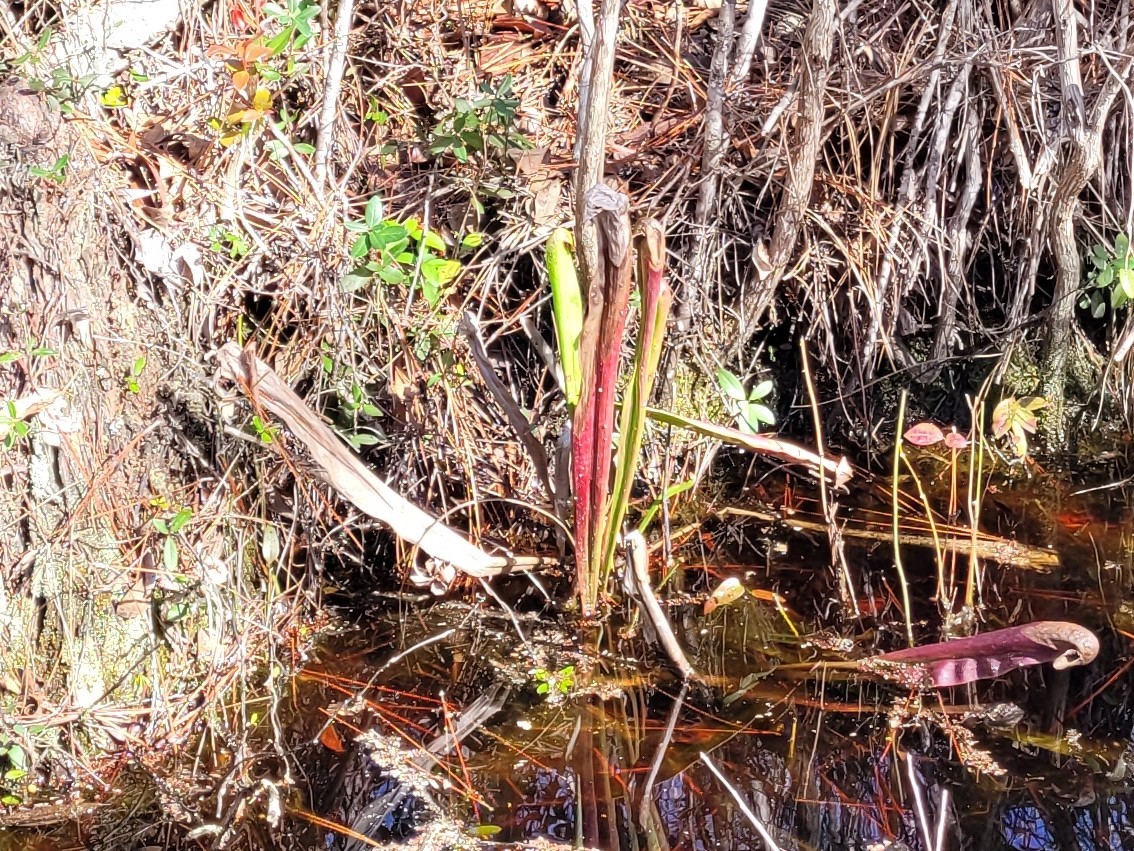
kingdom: Plantae
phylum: Tracheophyta
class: Magnoliopsida
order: Ericales
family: Sarraceniaceae
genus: Sarracenia
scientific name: Sarracenia minor
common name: Rainhat-trumpet
